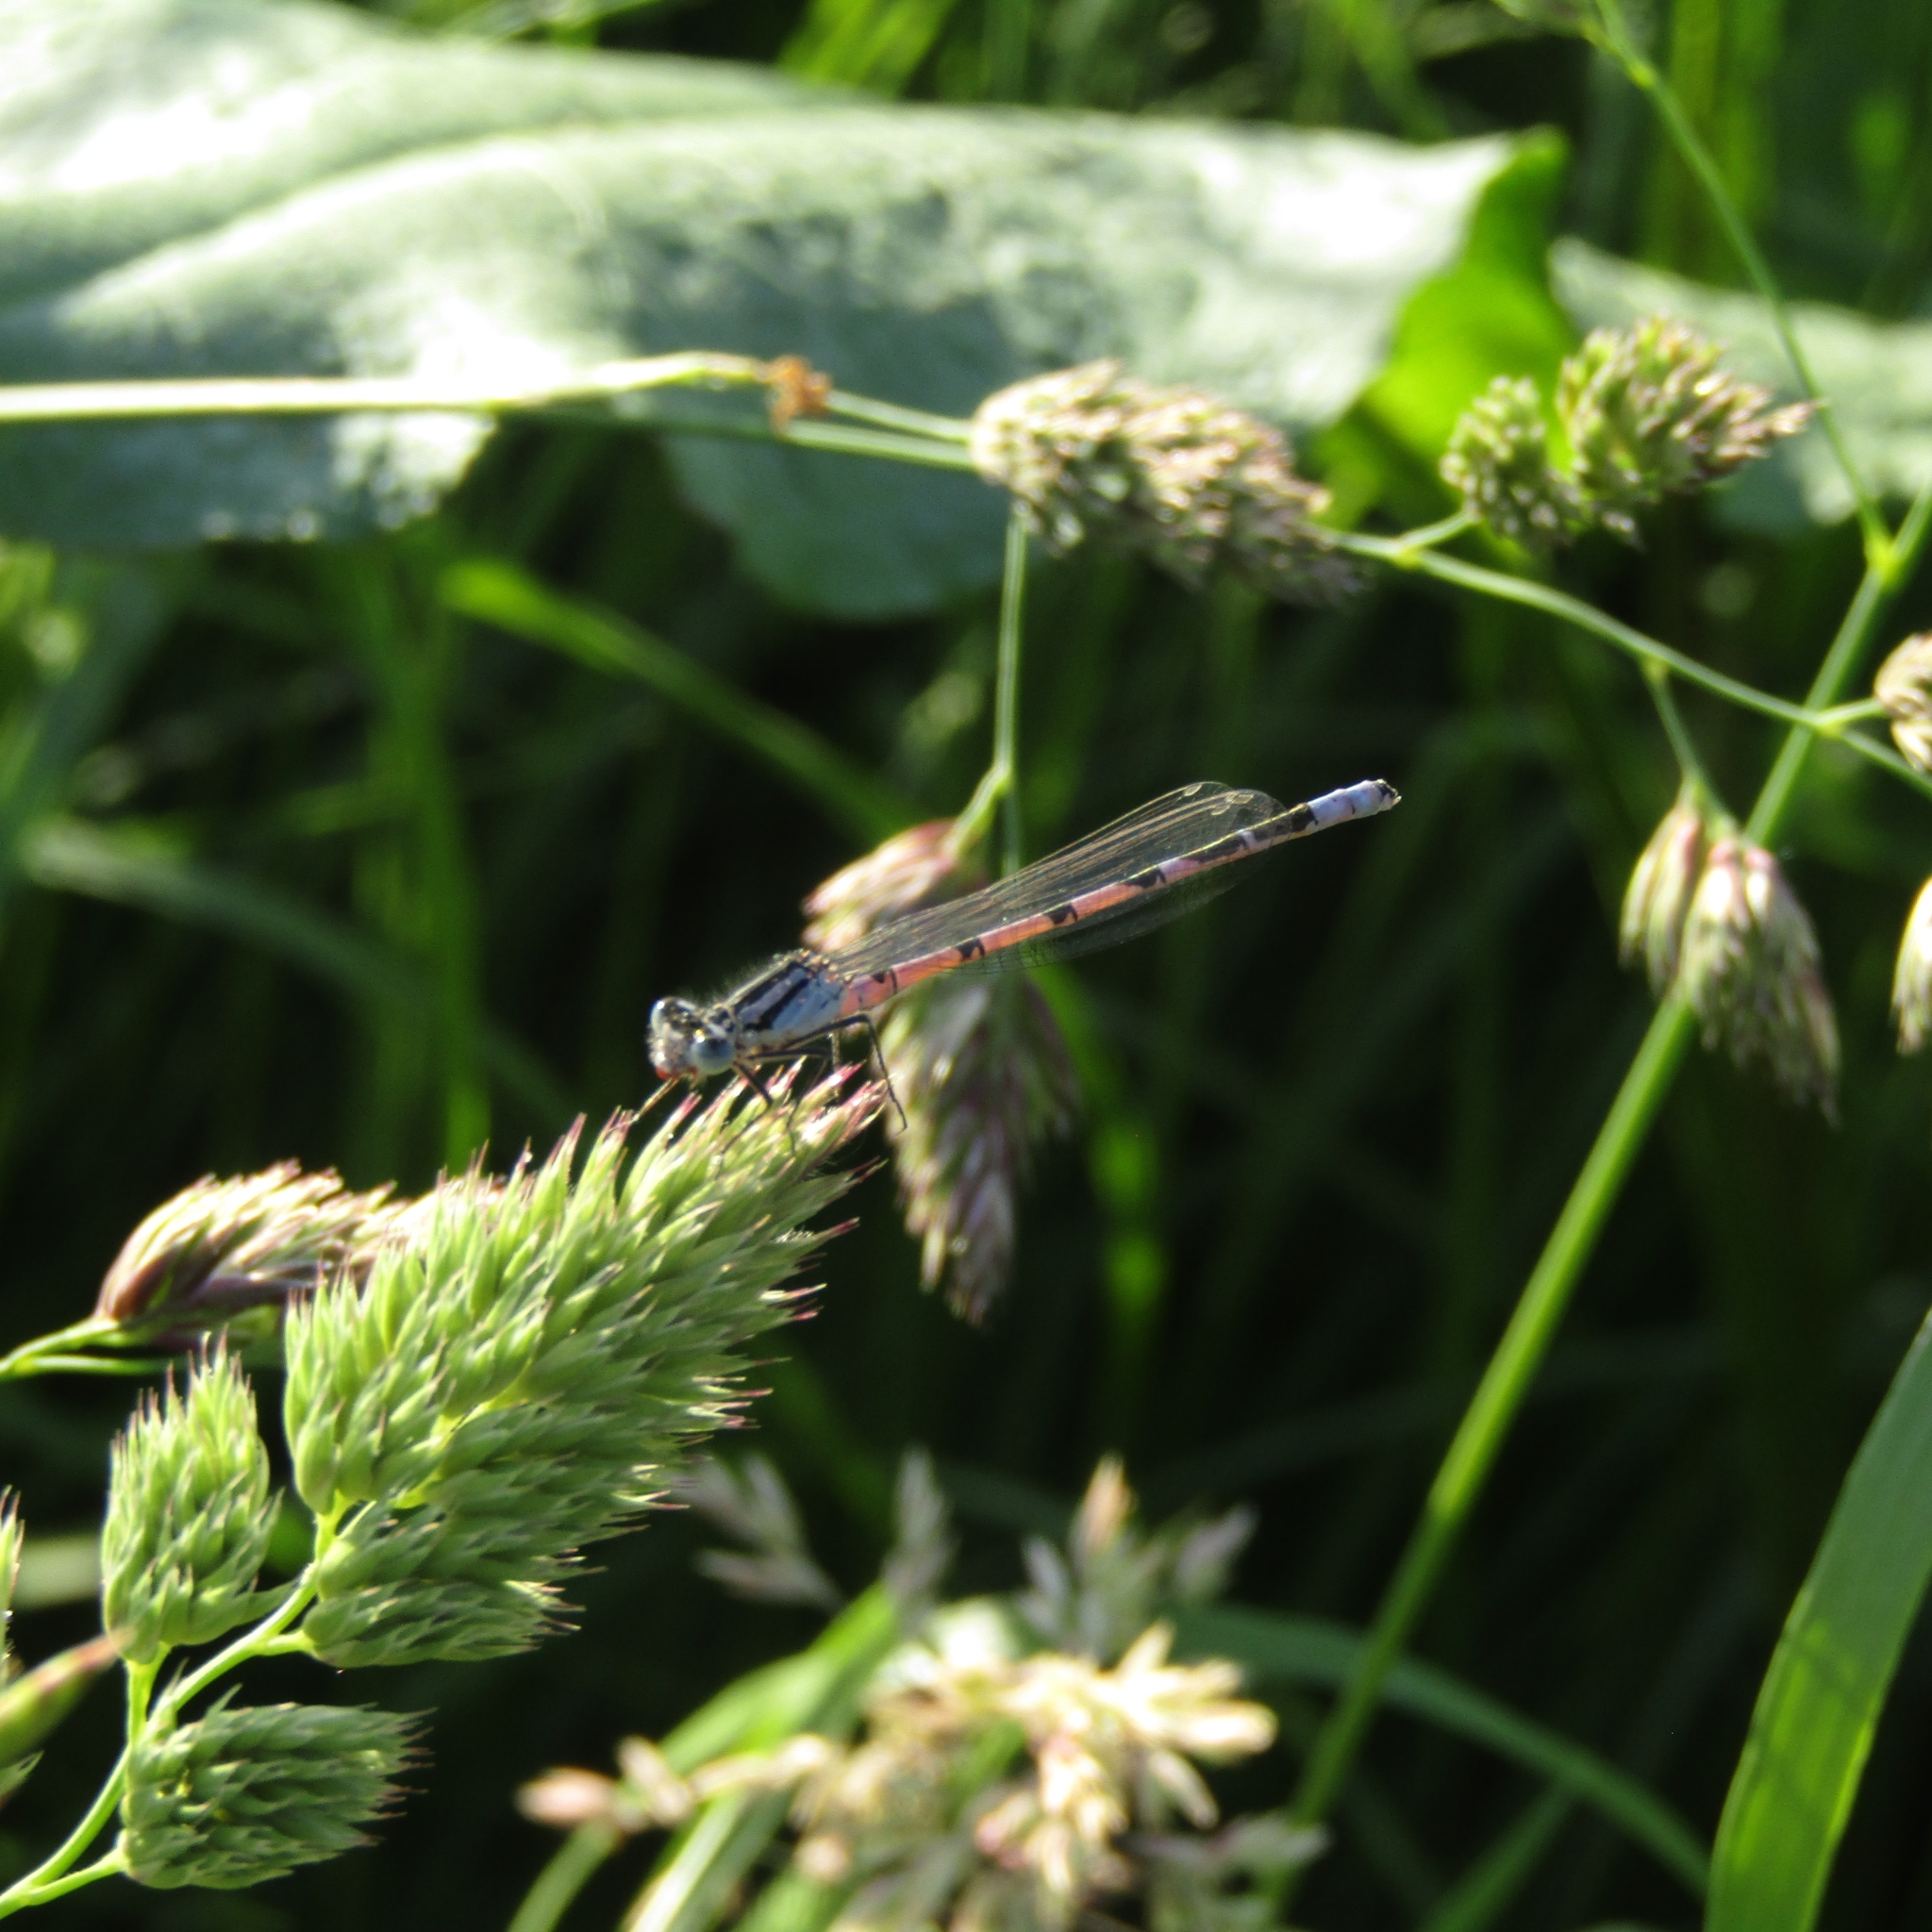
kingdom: Animalia
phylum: Arthropoda
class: Insecta
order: Odonata
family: Coenagrionidae
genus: Enallagma
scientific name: Enallagma cyathigerum
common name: Common blue damselfly
